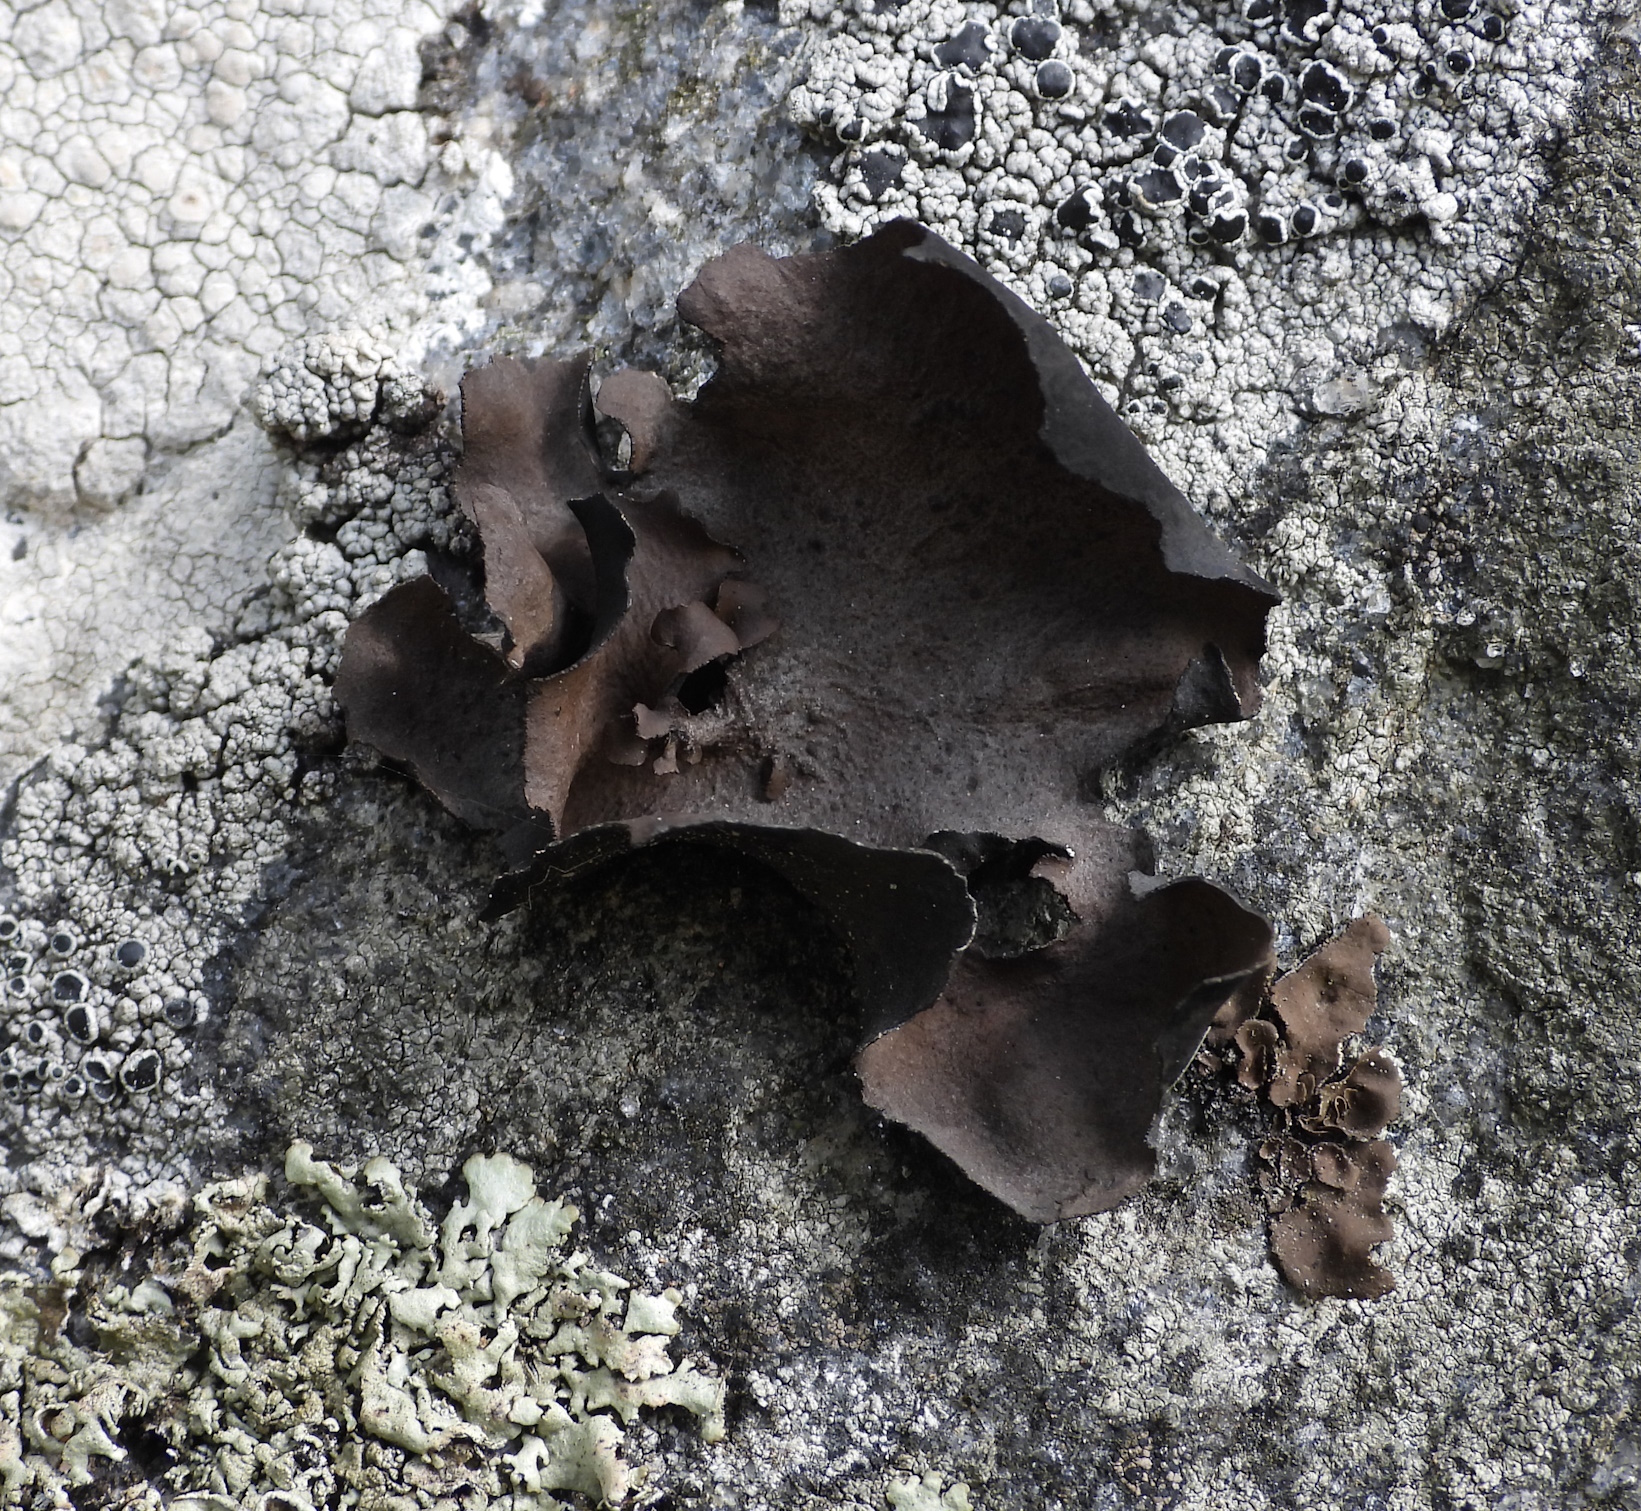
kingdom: Fungi
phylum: Ascomycota
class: Lecanoromycetes
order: Umbilicariales
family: Umbilicariaceae
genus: Umbilicaria
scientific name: Umbilicaria polyphylla
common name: Petalled rocktripe lichen
